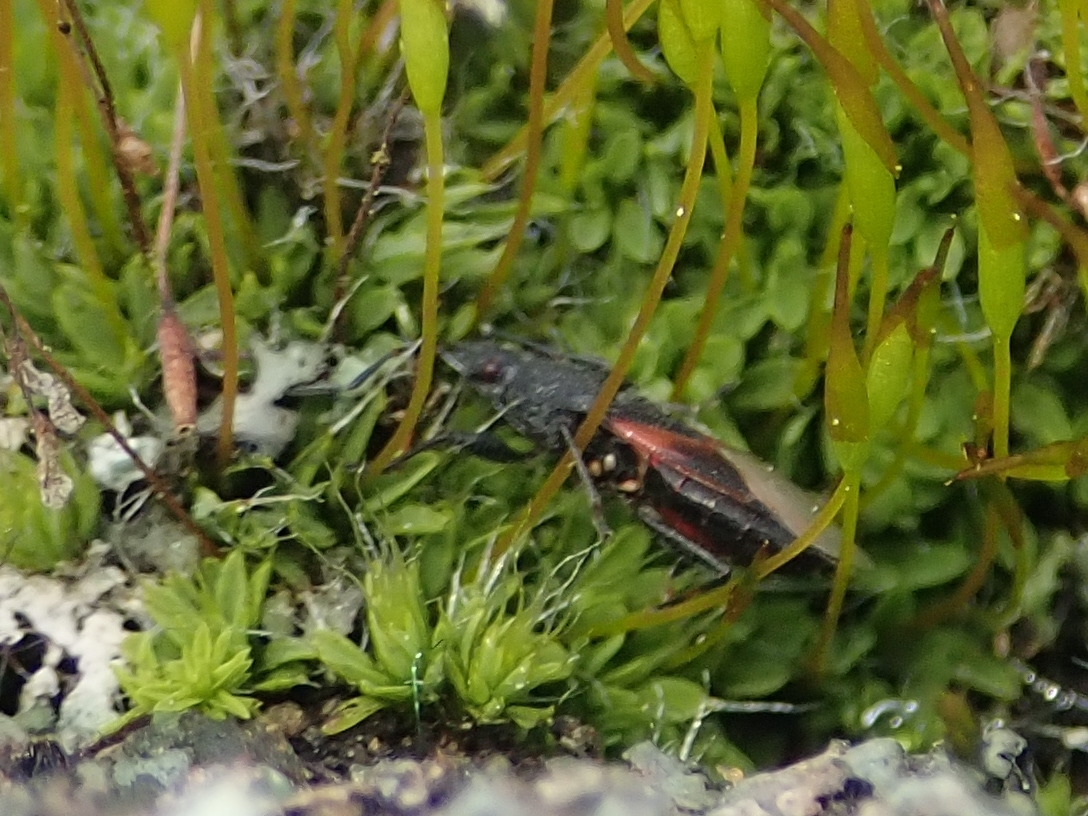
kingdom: Animalia
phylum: Arthropoda
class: Insecta
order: Hemiptera
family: Oxycarenidae
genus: Oxycarenus
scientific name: Oxycarenus lavaterae
